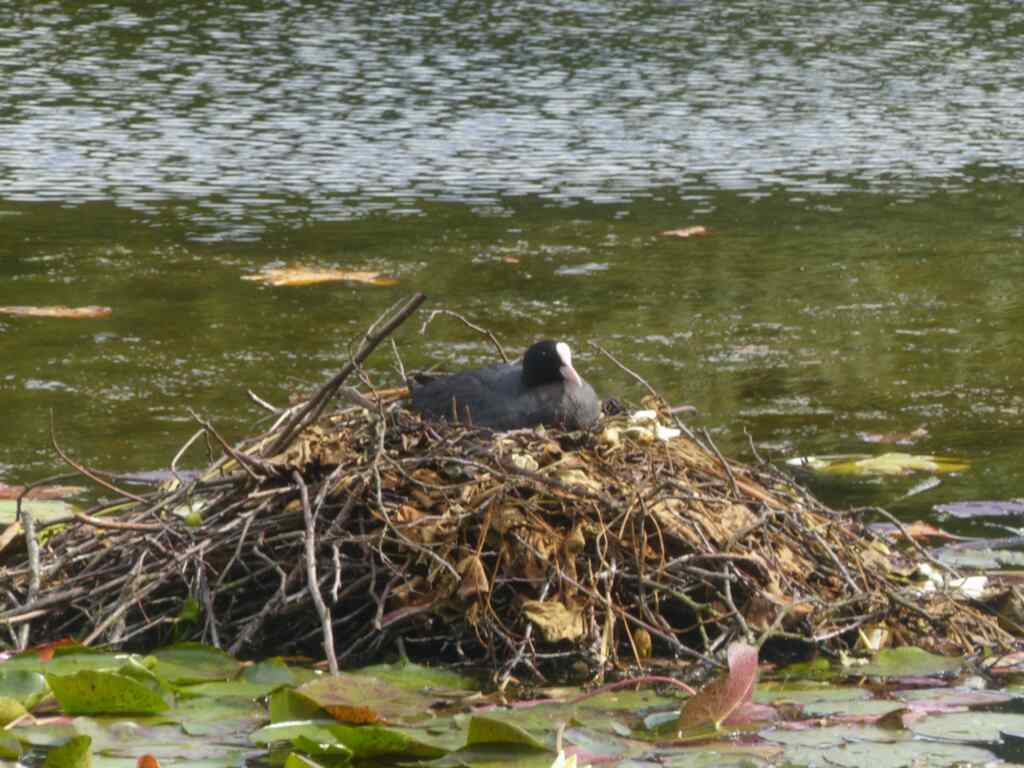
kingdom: Animalia
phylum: Chordata
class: Aves
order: Gruiformes
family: Rallidae
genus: Fulica
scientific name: Fulica atra
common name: Eurasian coot
